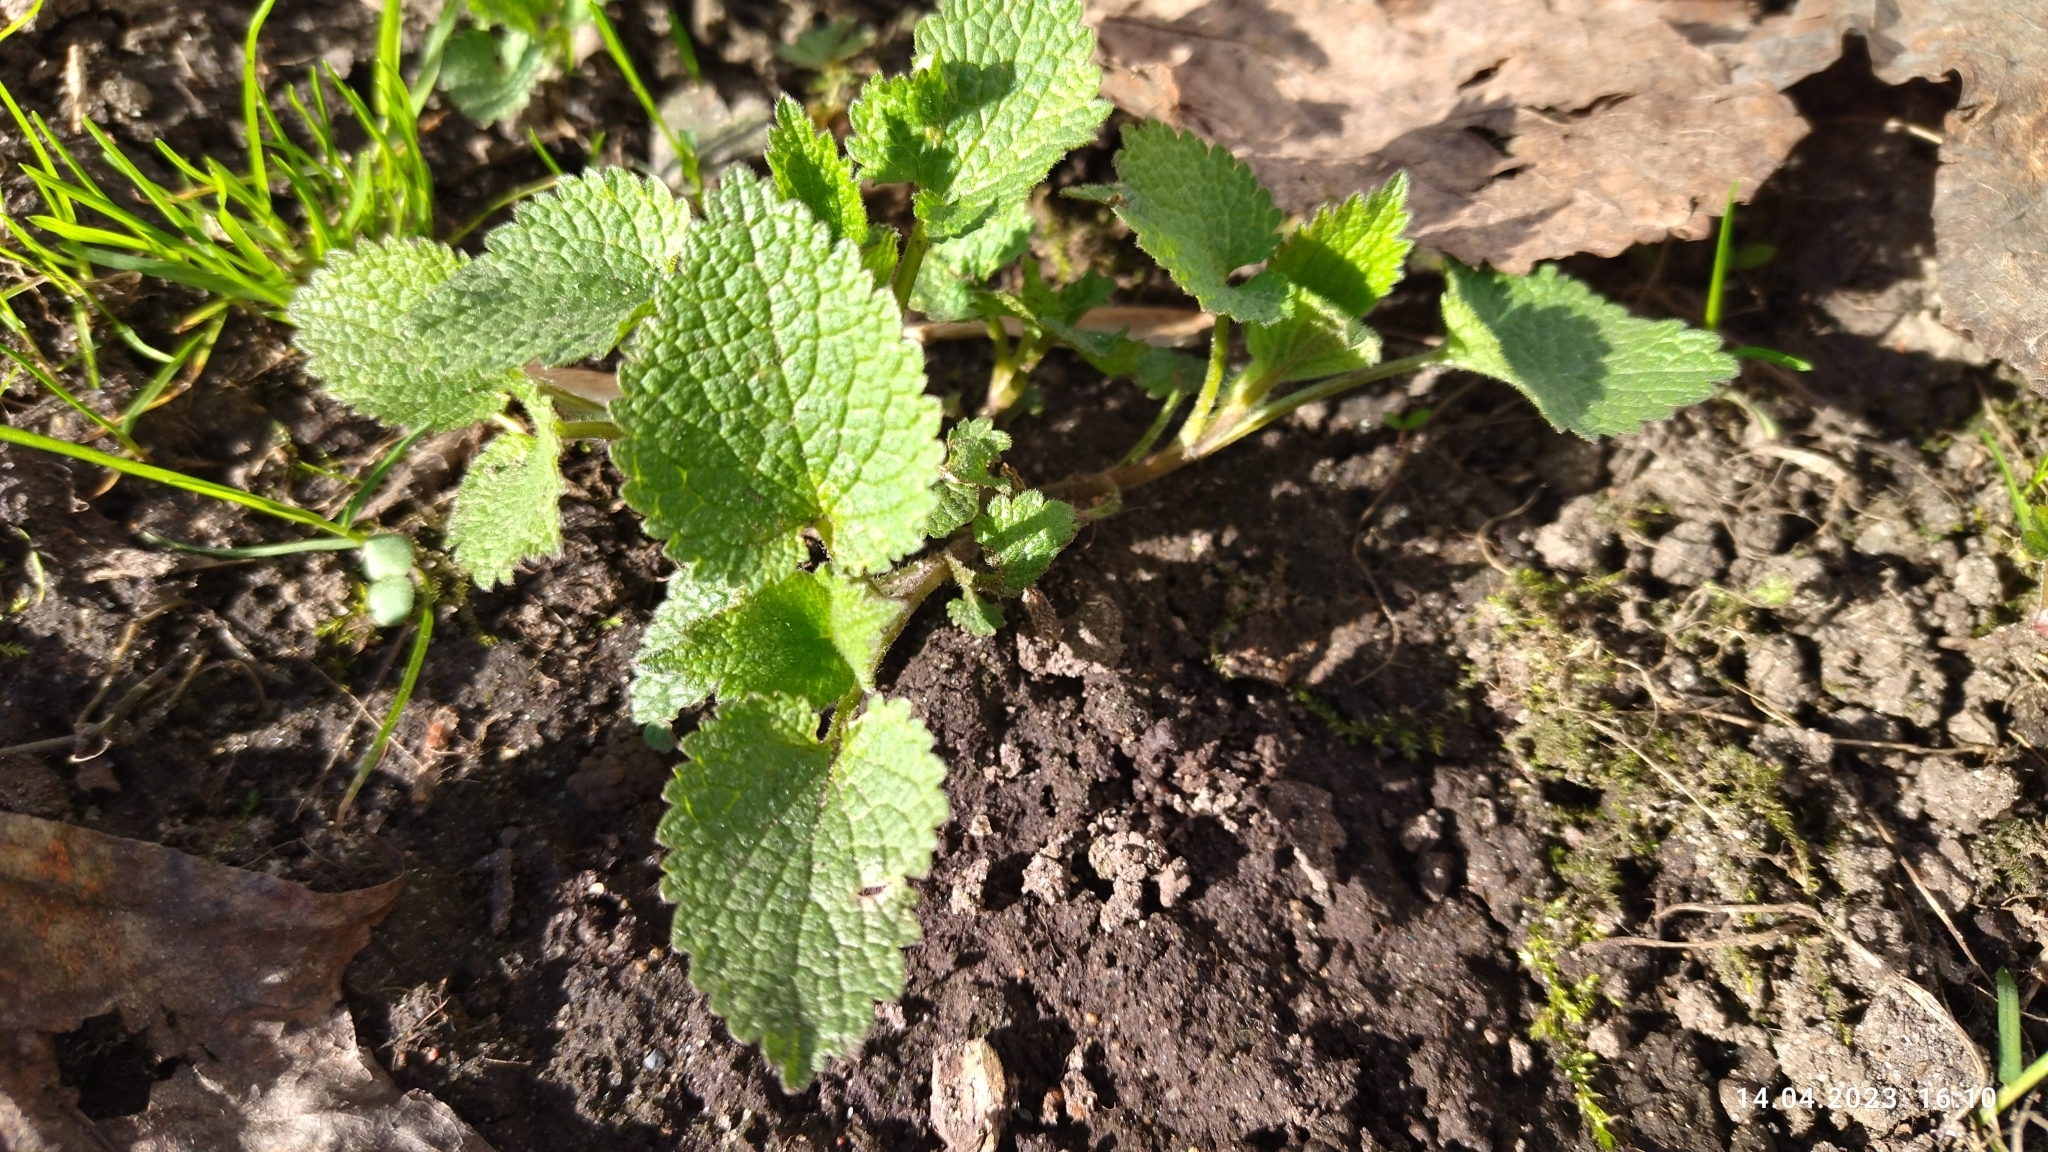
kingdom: Plantae
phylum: Tracheophyta
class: Magnoliopsida
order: Lamiales
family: Lamiaceae
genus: Lamium
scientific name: Lamium album
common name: White dead-nettle
